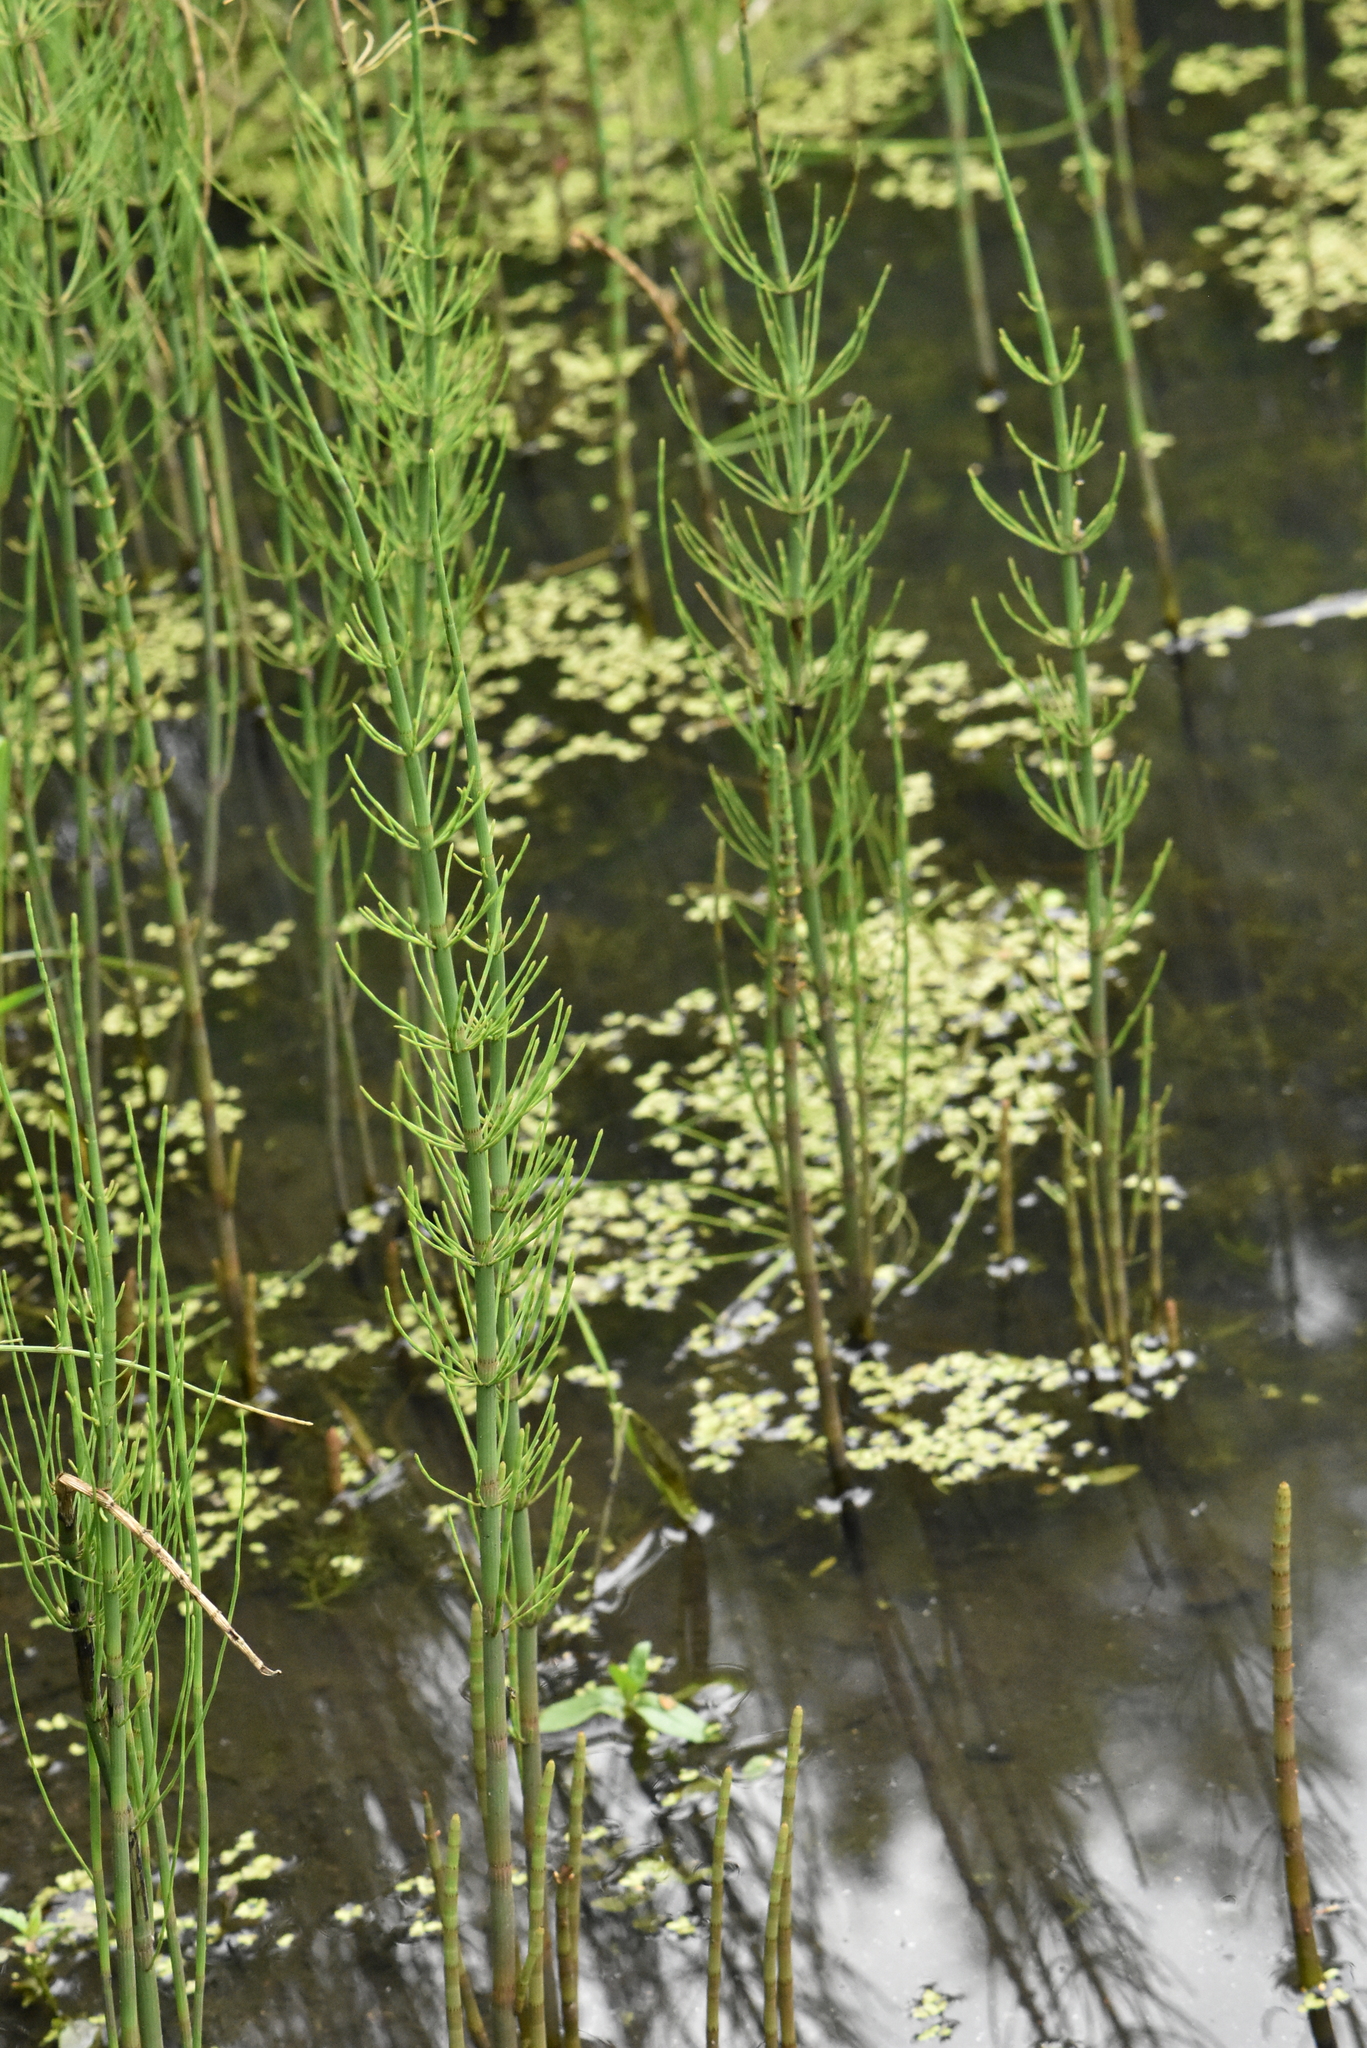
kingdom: Plantae
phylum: Tracheophyta
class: Polypodiopsida
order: Equisetales
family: Equisetaceae
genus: Equisetum
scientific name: Equisetum fluviatile
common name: Water horsetail
